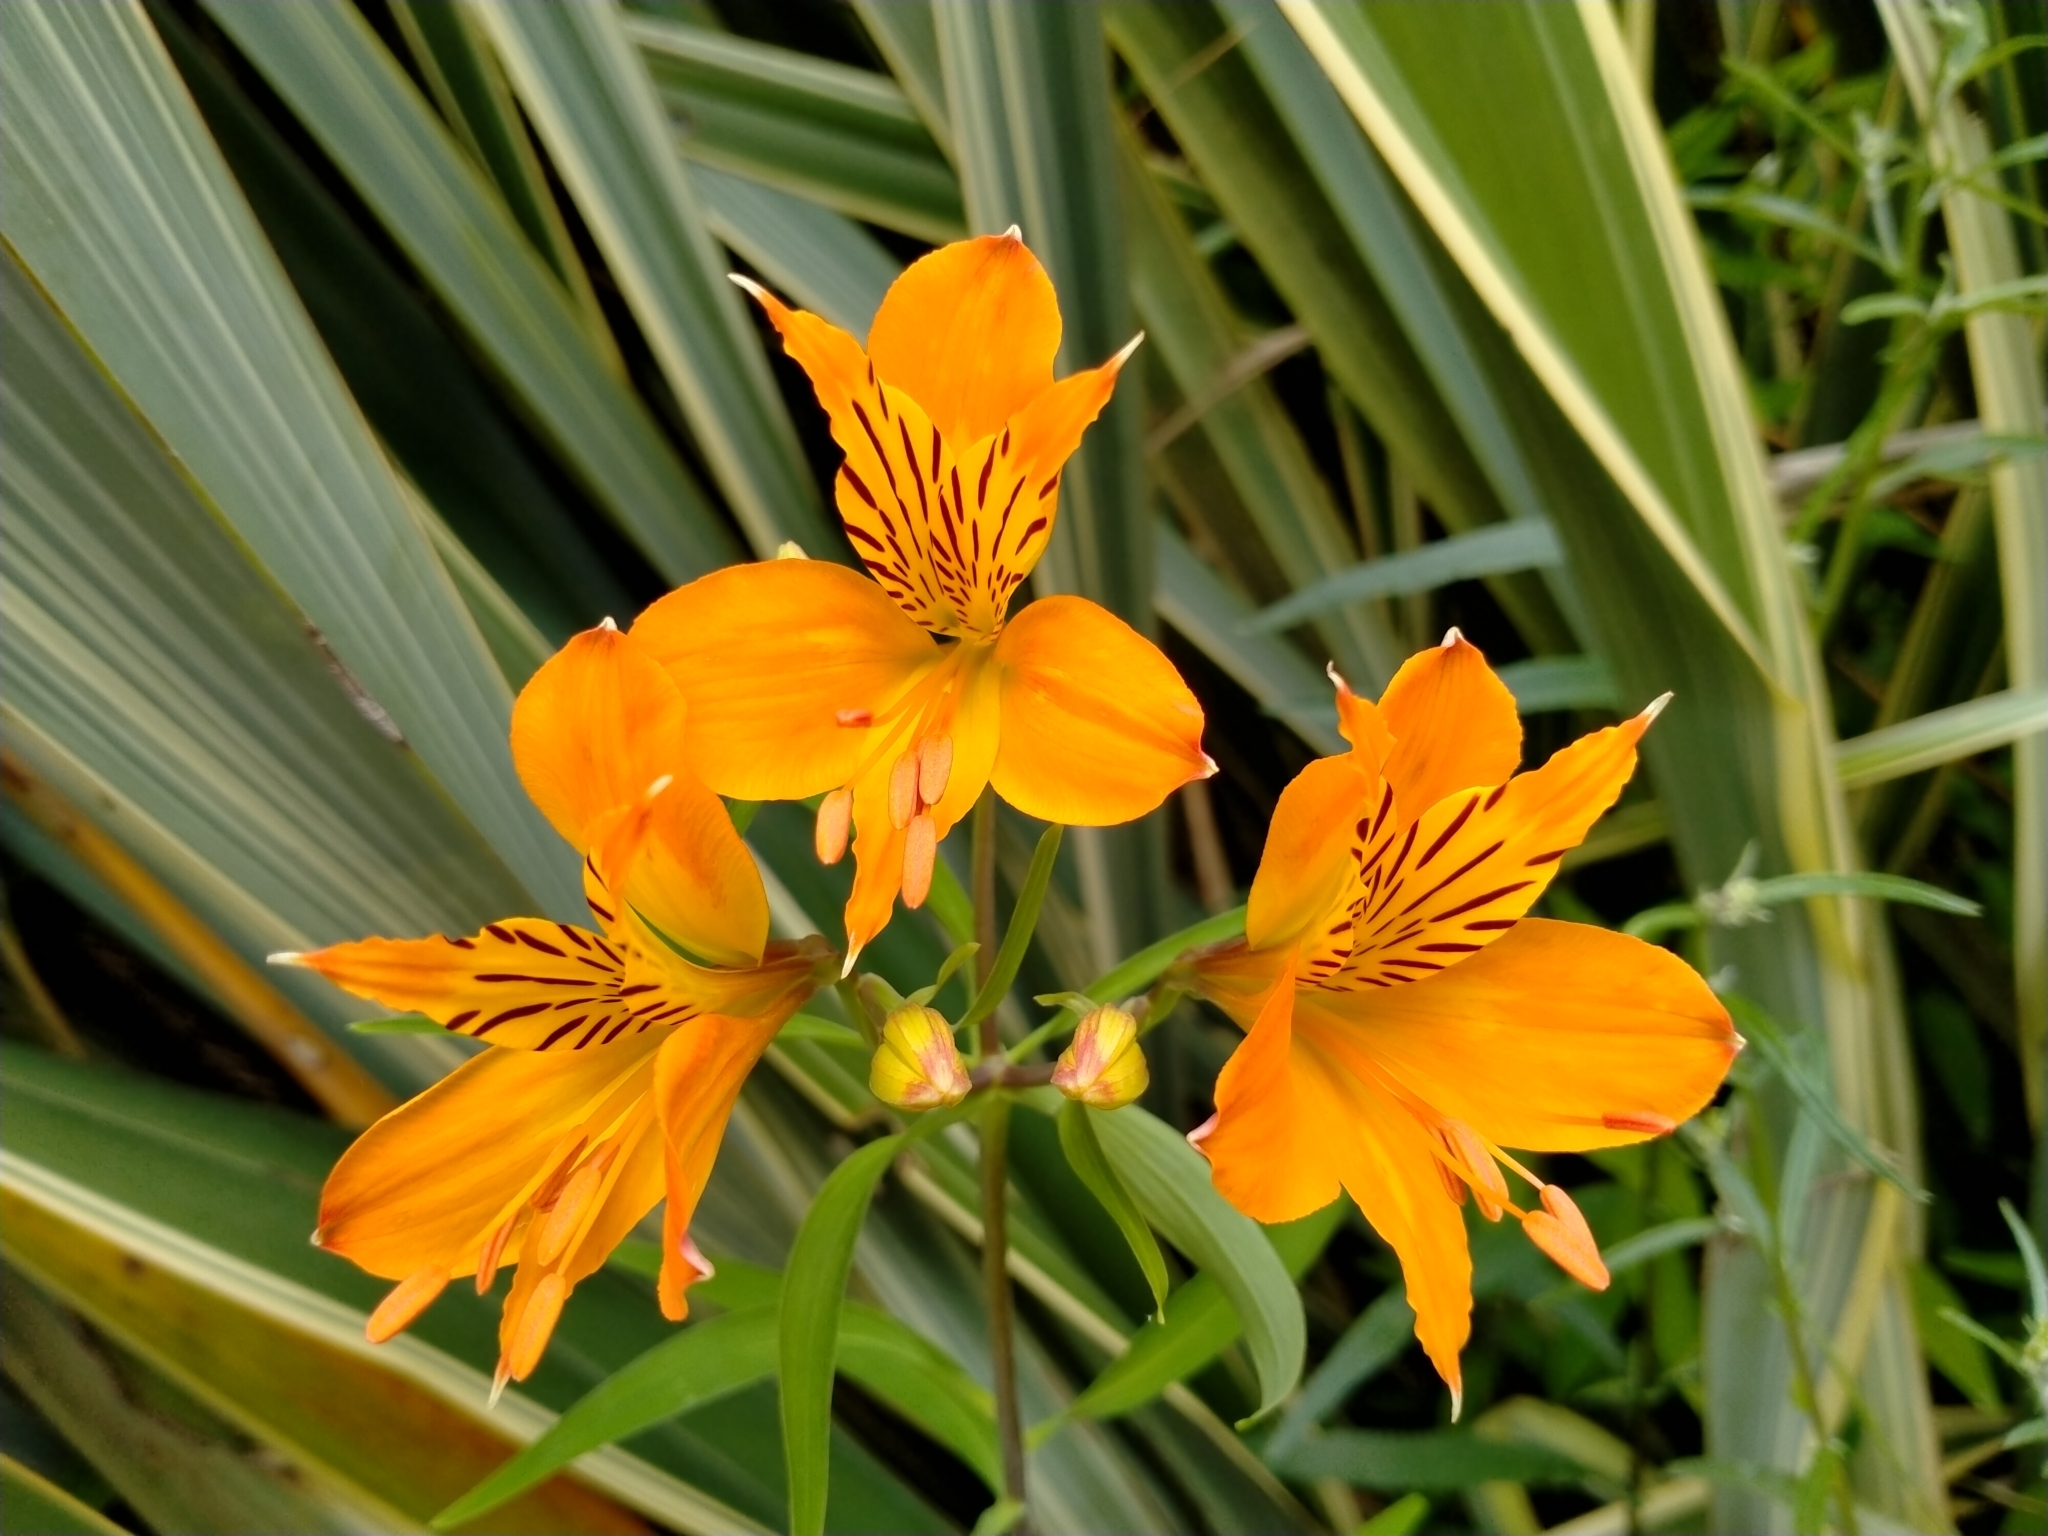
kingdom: Plantae
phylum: Tracheophyta
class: Liliopsida
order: Liliales
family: Alstroemeriaceae
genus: Alstroemeria
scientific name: Alstroemeria aurea
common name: Peruvian lily
